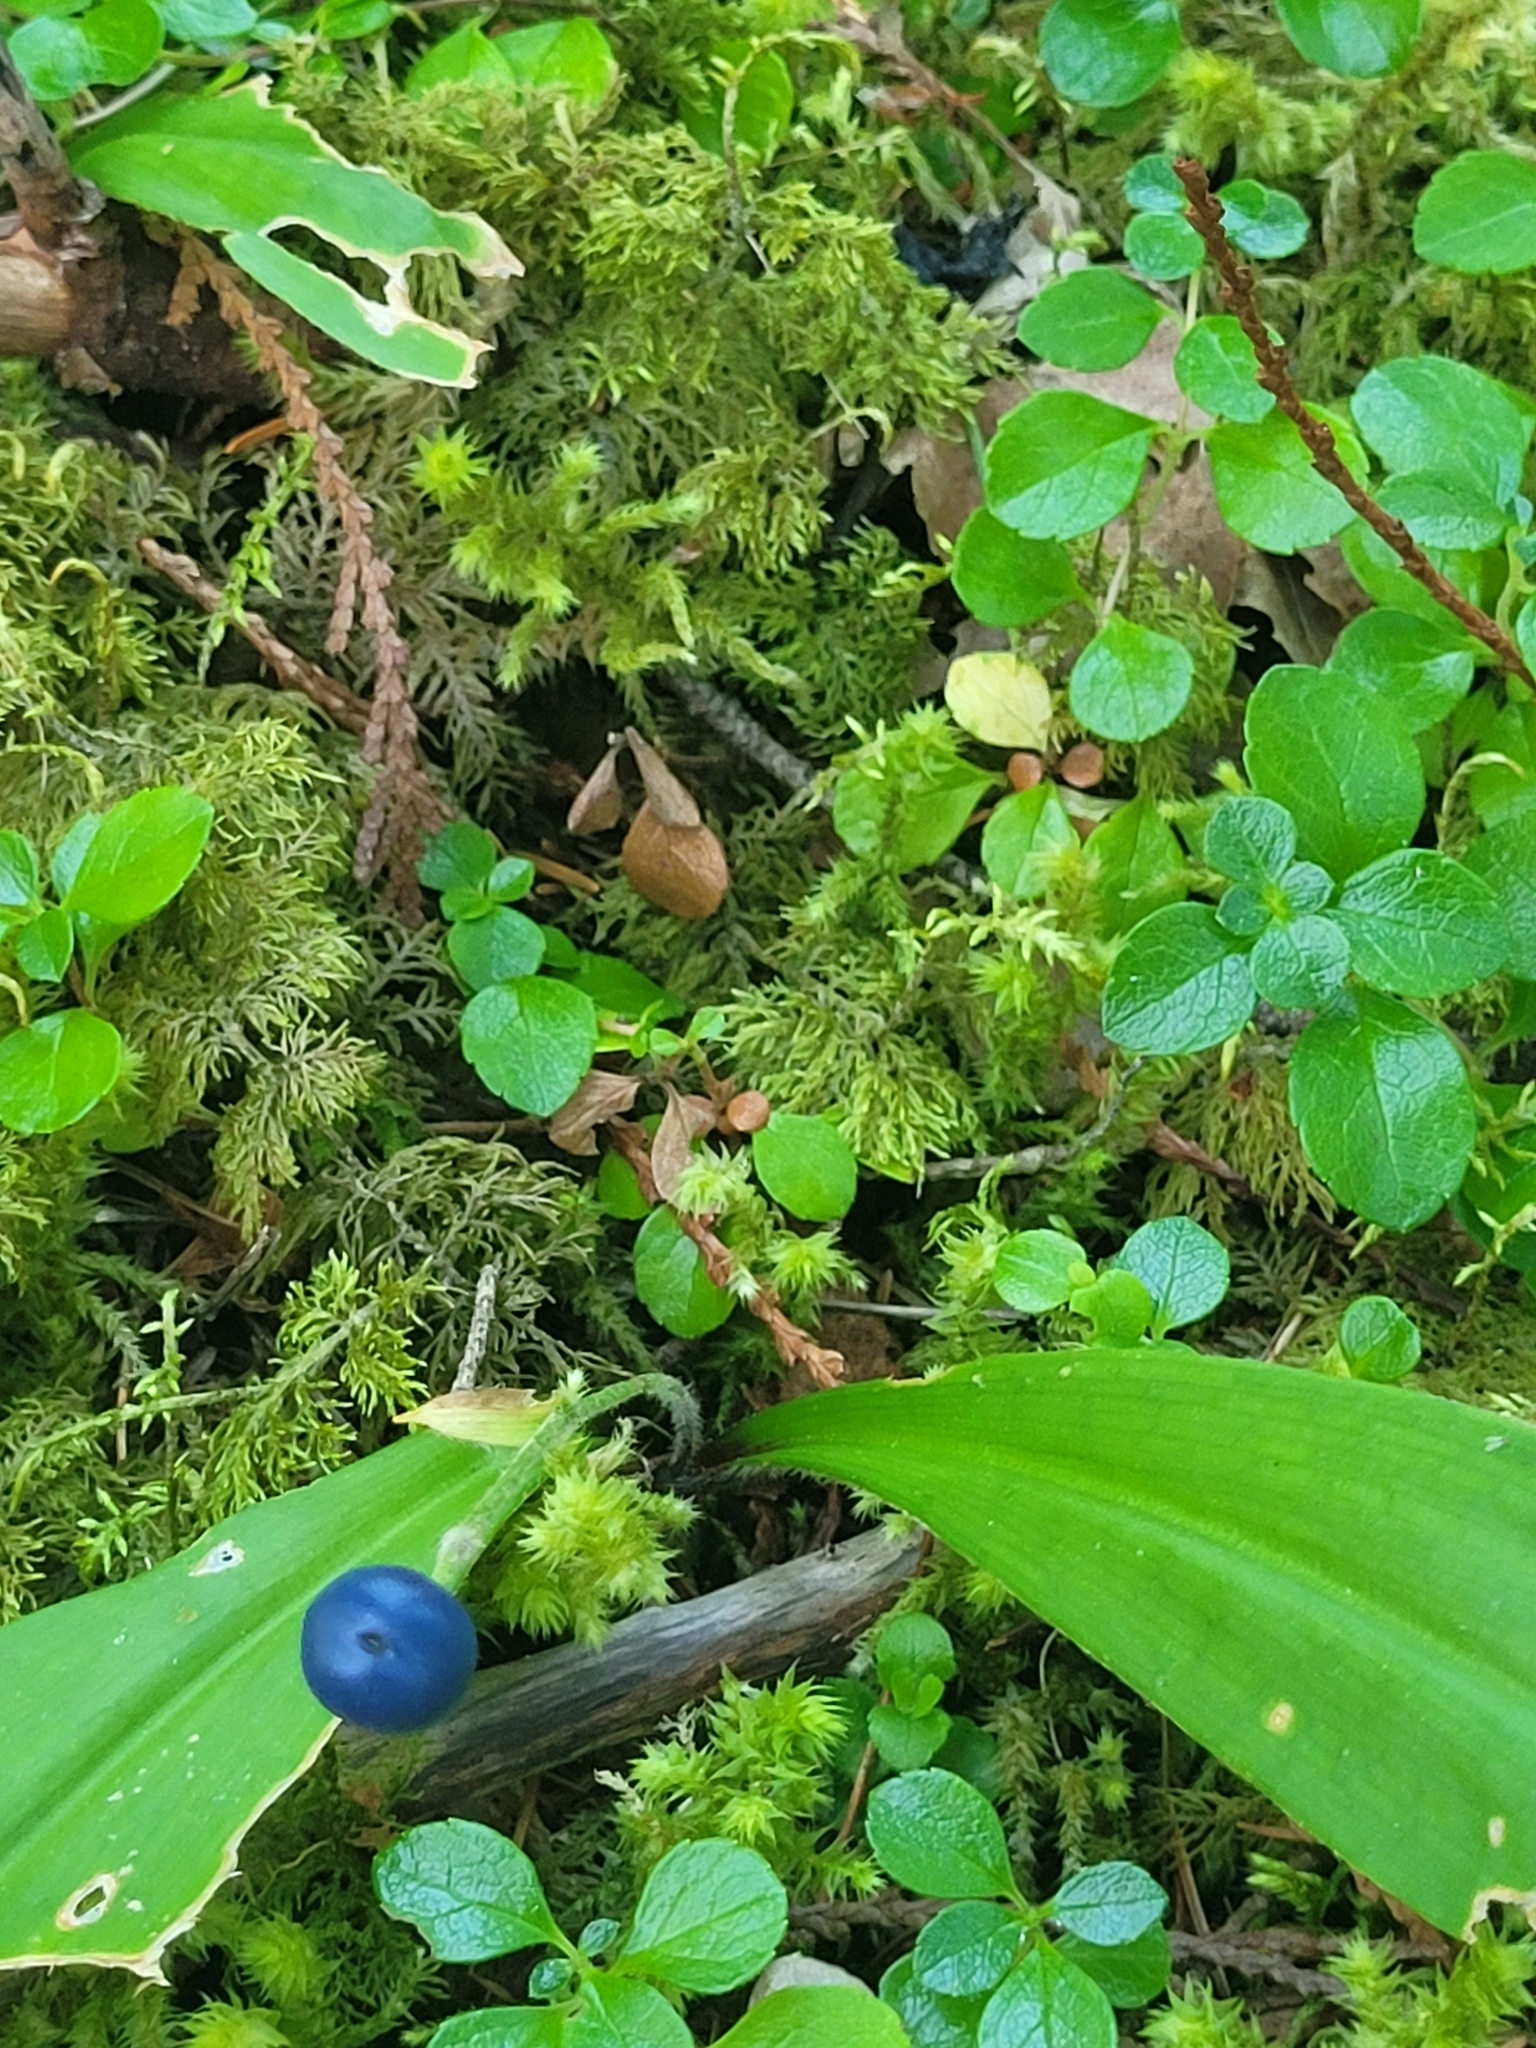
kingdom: Plantae
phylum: Tracheophyta
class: Liliopsida
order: Liliales
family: Liliaceae
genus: Clintonia
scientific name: Clintonia uniflora
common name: Queen's cup
